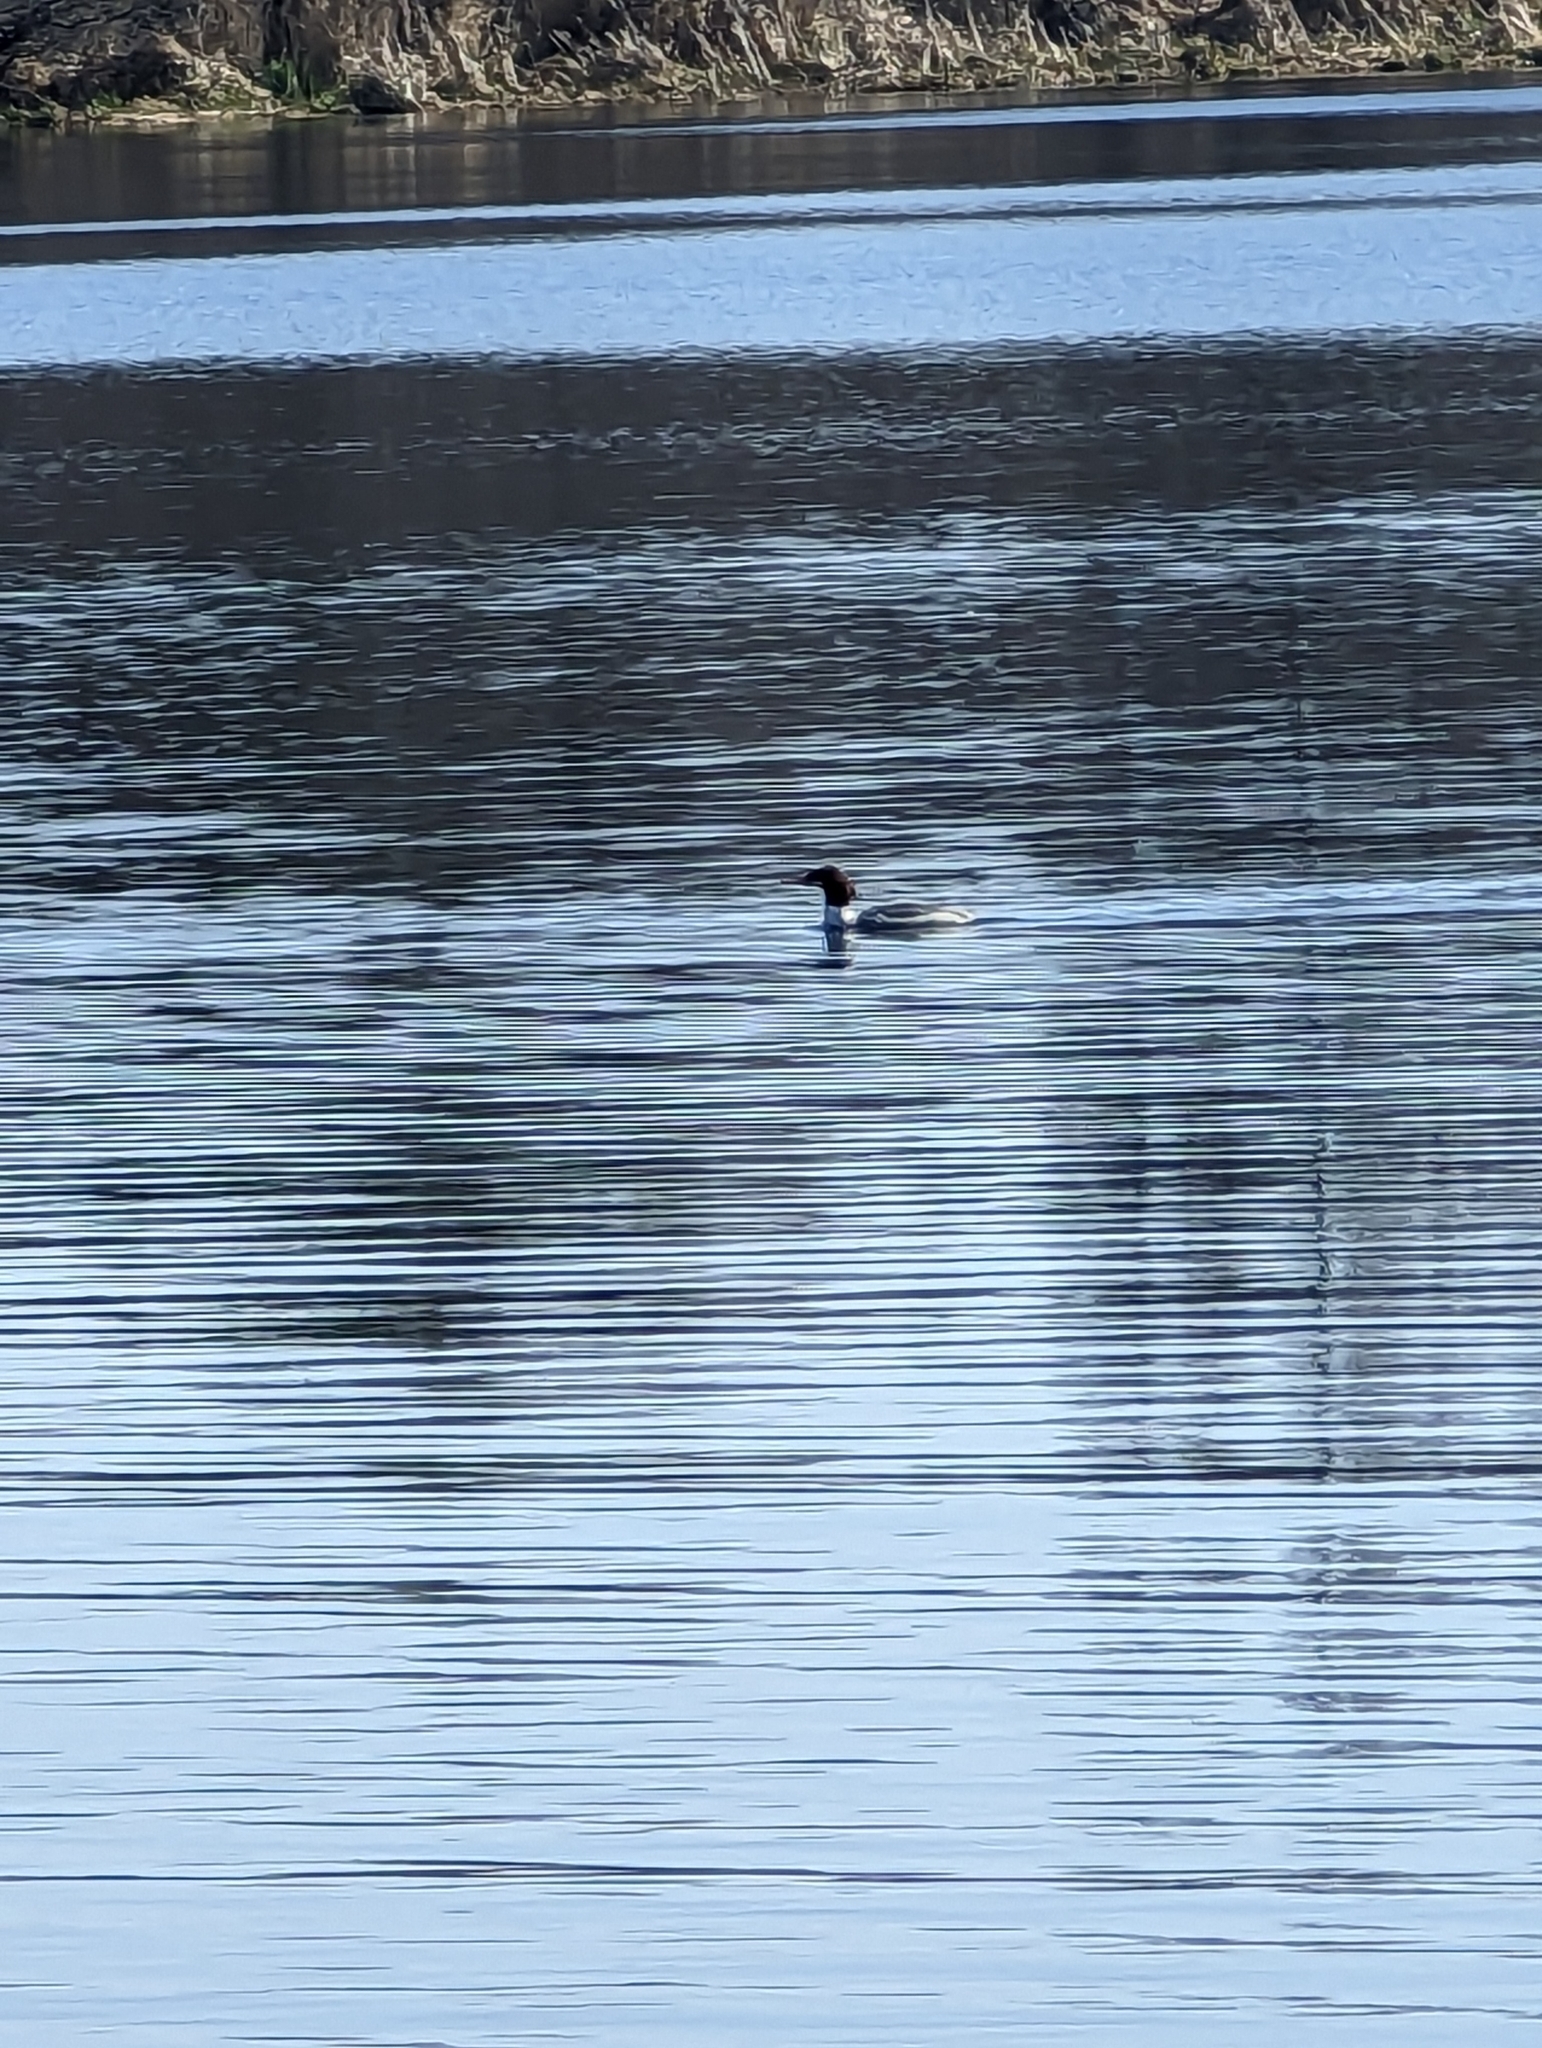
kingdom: Animalia
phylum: Chordata
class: Aves
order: Anseriformes
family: Anatidae
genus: Mergus
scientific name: Mergus merganser
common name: Common merganser
